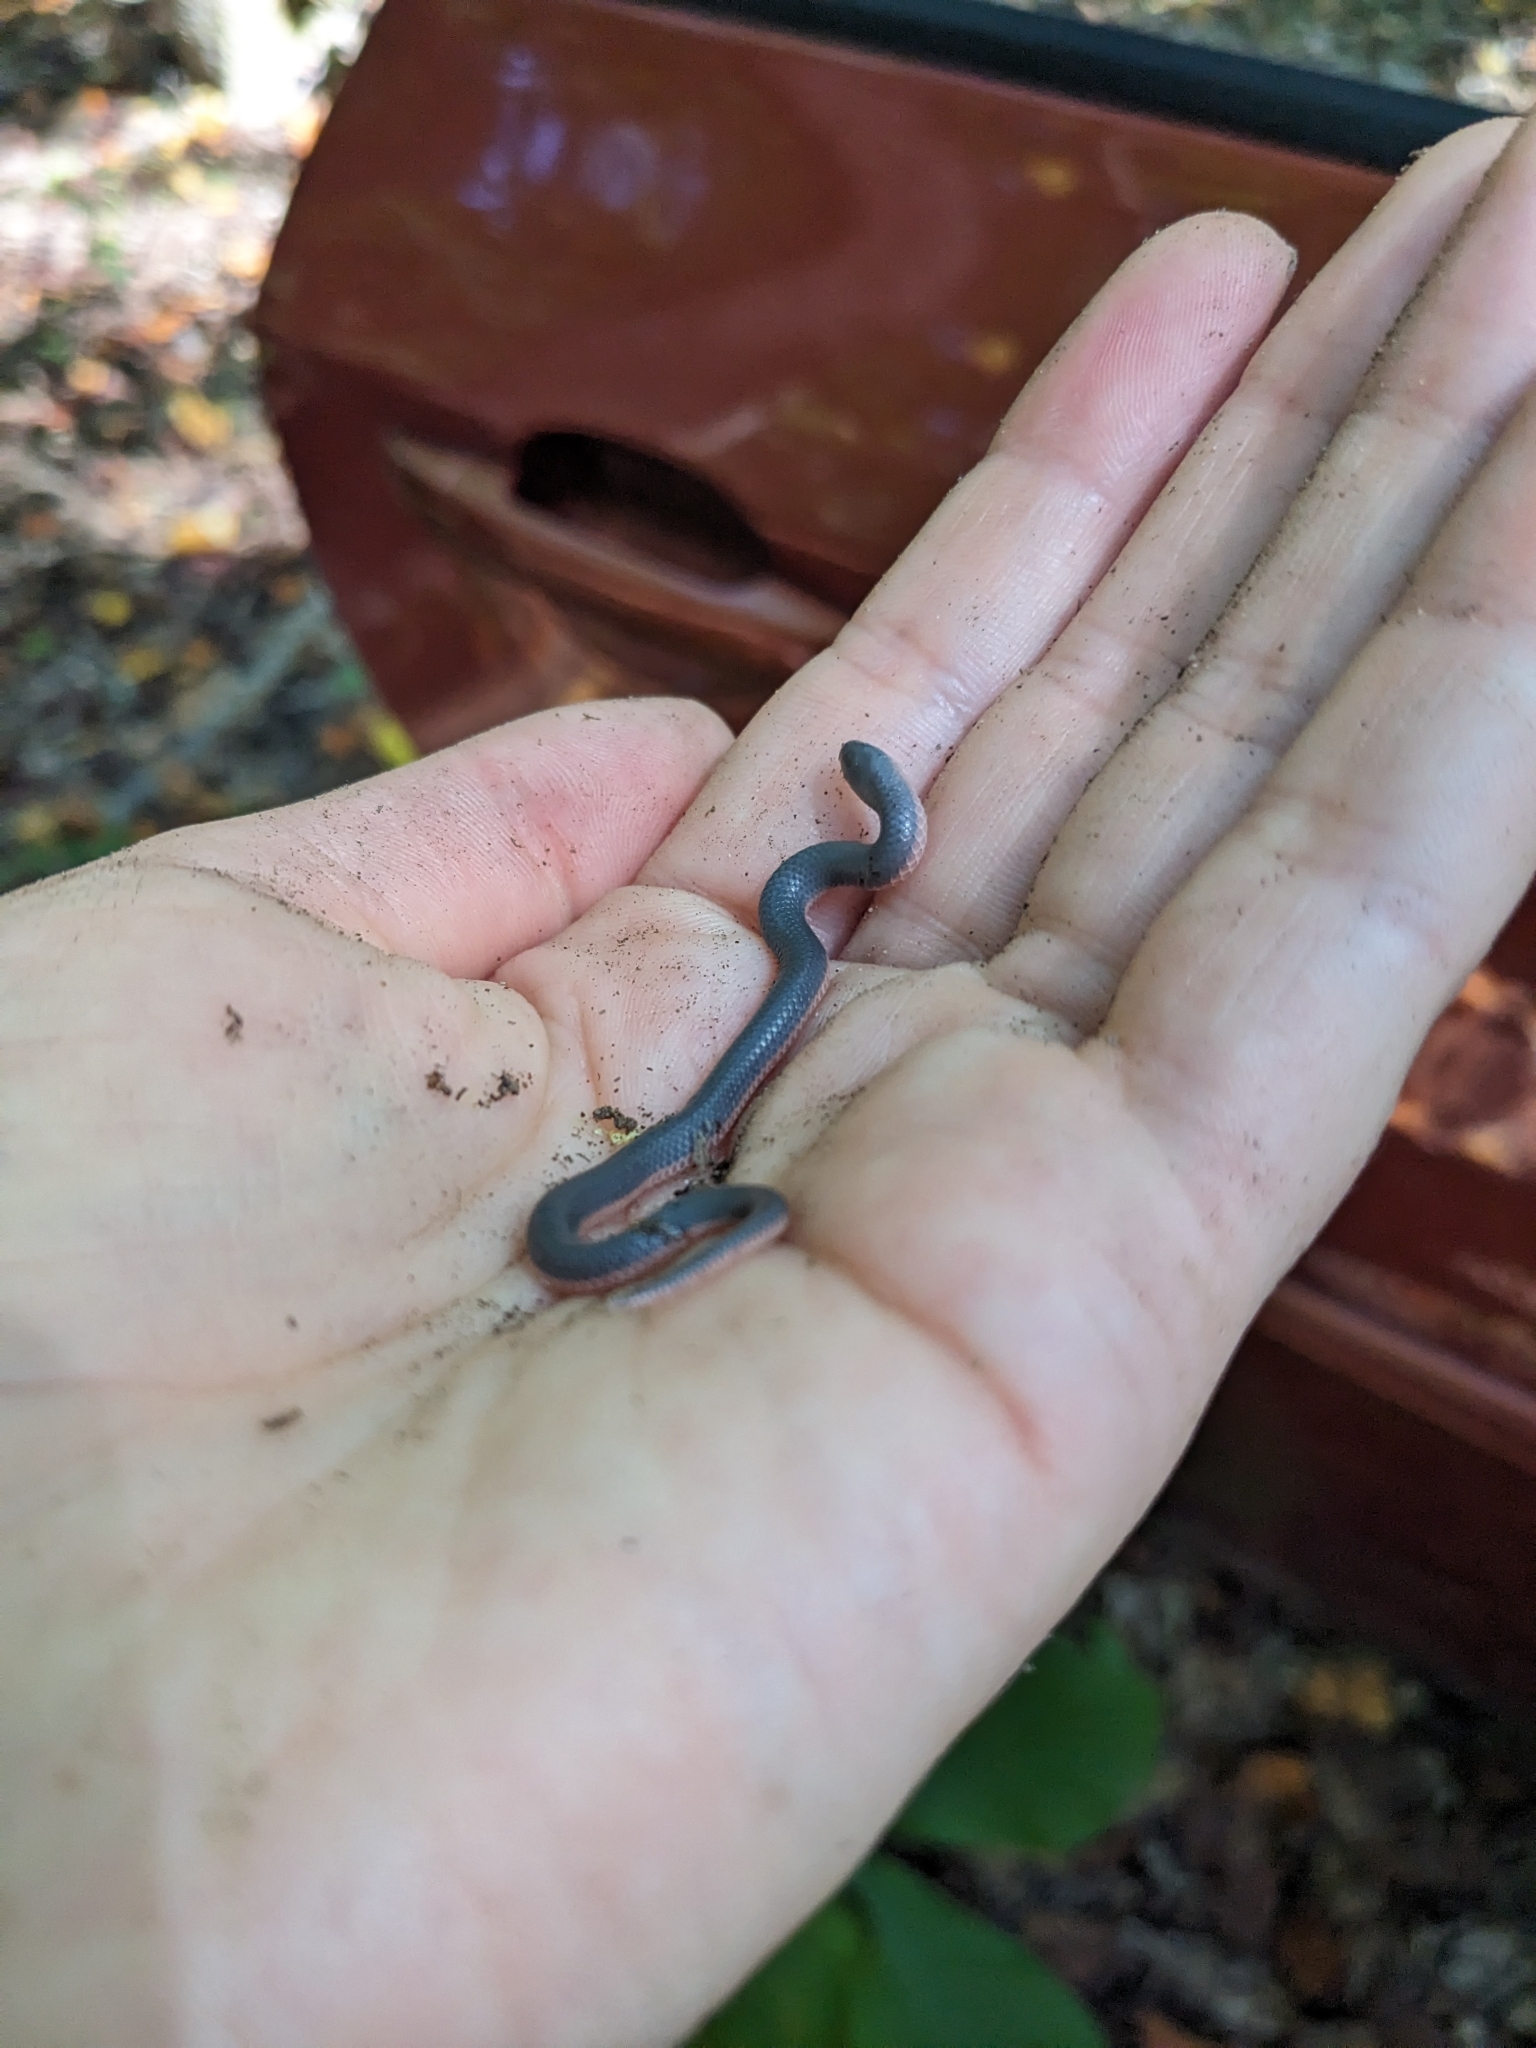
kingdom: Animalia
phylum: Chordata
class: Squamata
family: Colubridae
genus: Carphophis
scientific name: Carphophis amoenus
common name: Eastern worm snake
